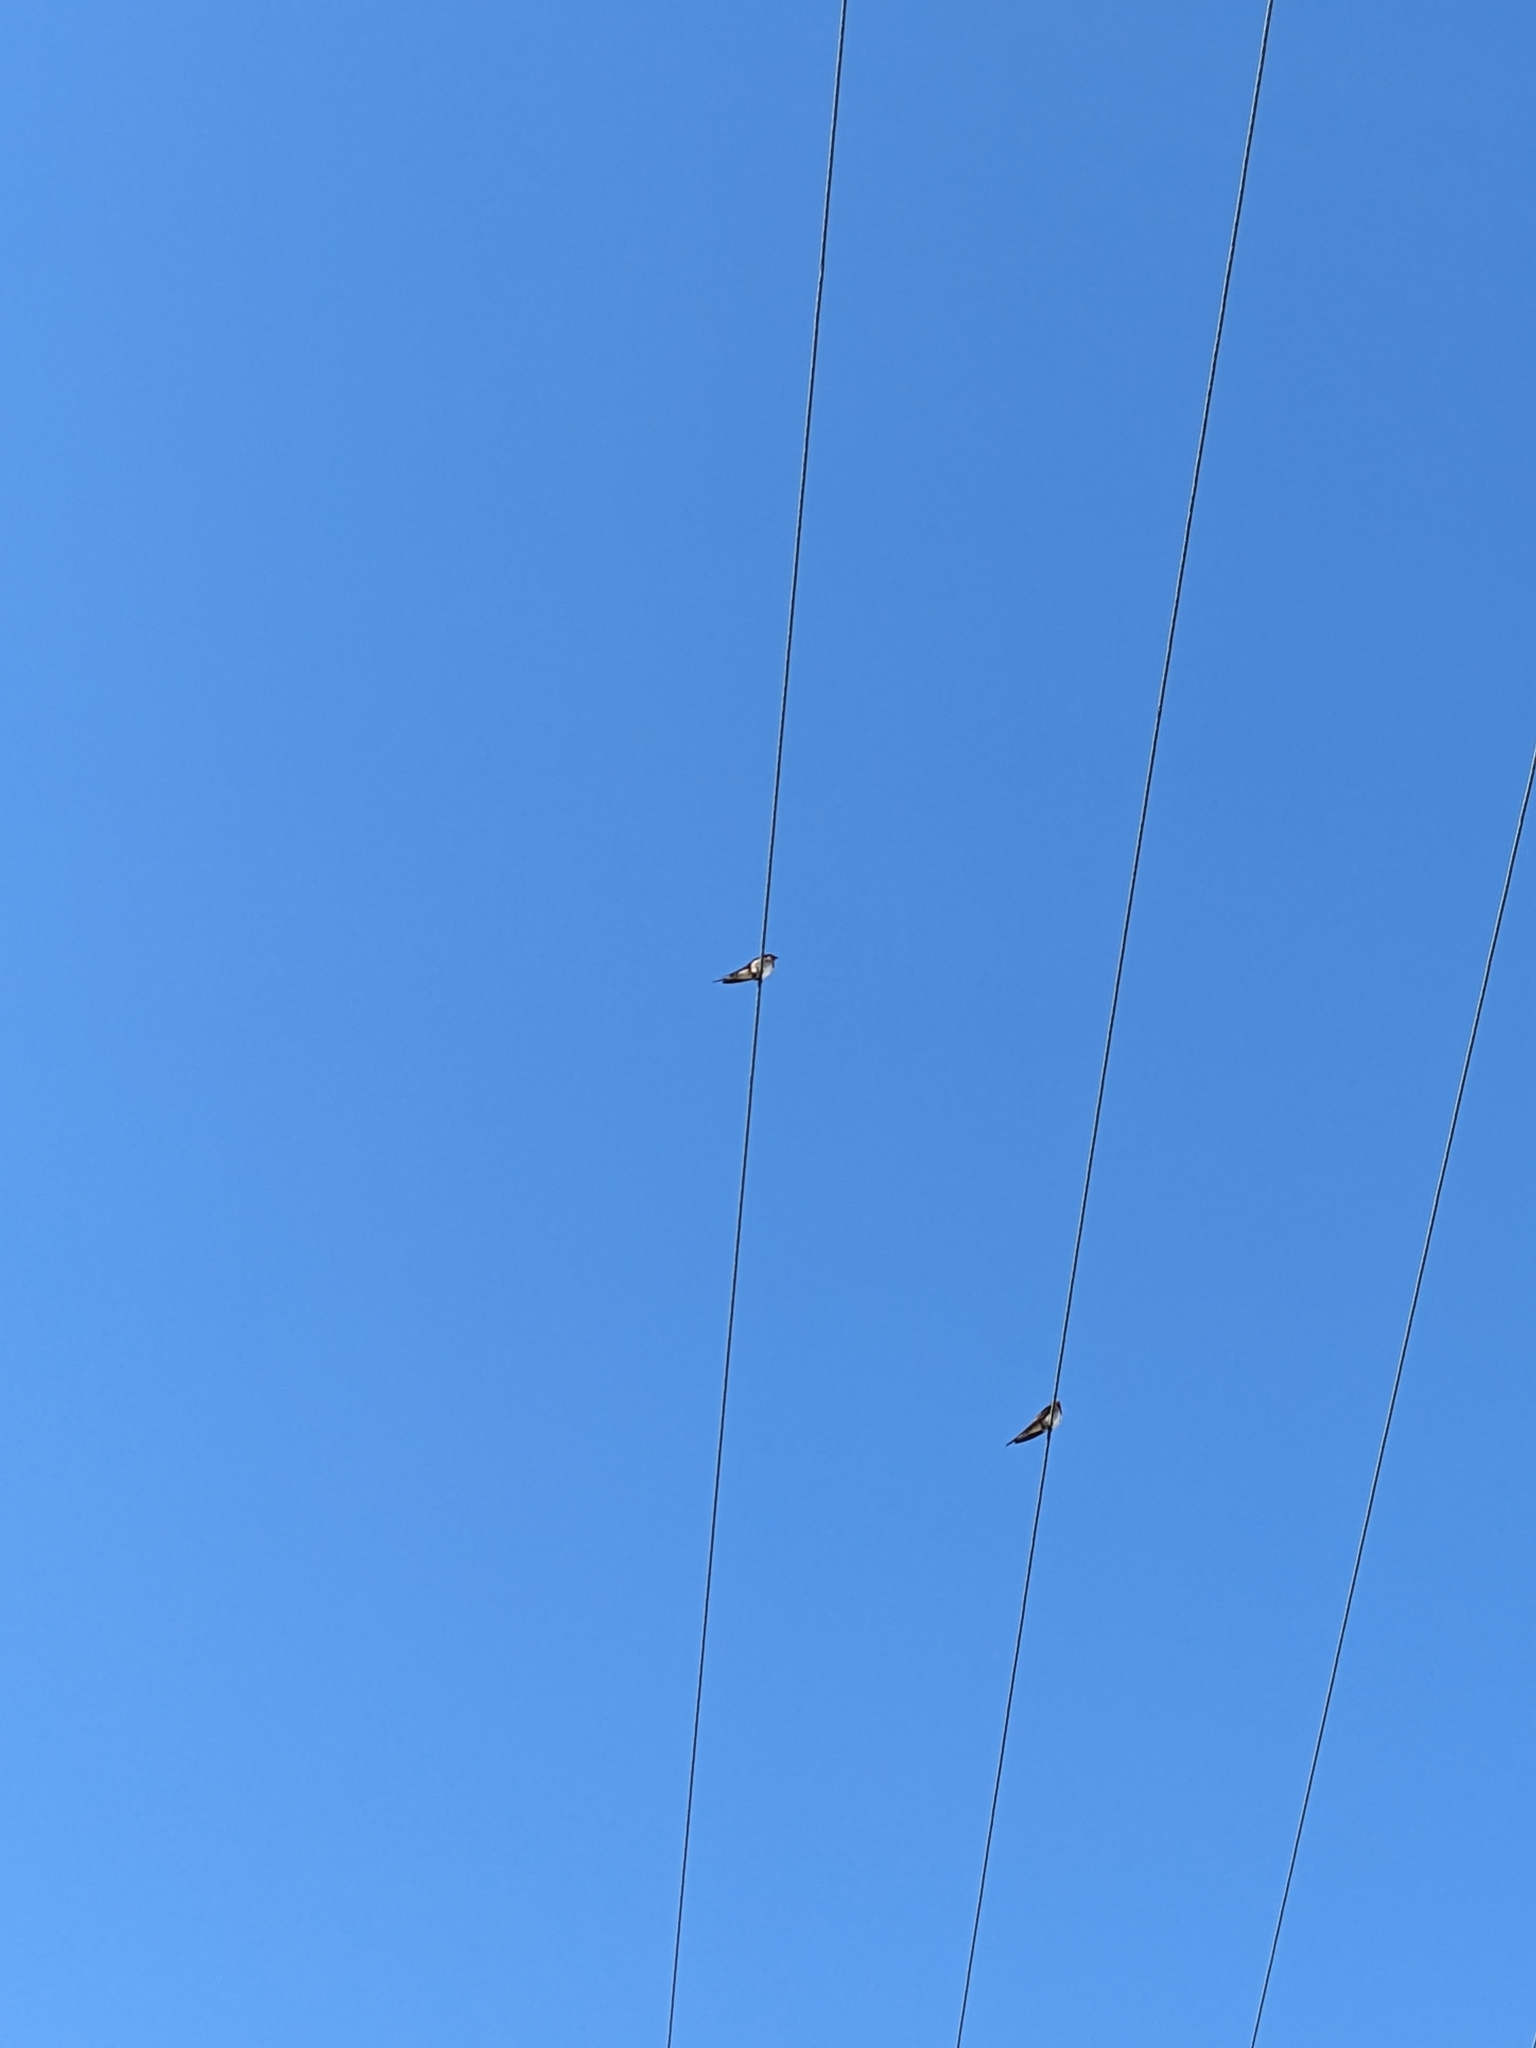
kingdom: Animalia
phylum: Chordata
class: Aves
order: Passeriformes
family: Hirundinidae
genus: Hirundo
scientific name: Hirundo neoxena
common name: Welcome swallow
